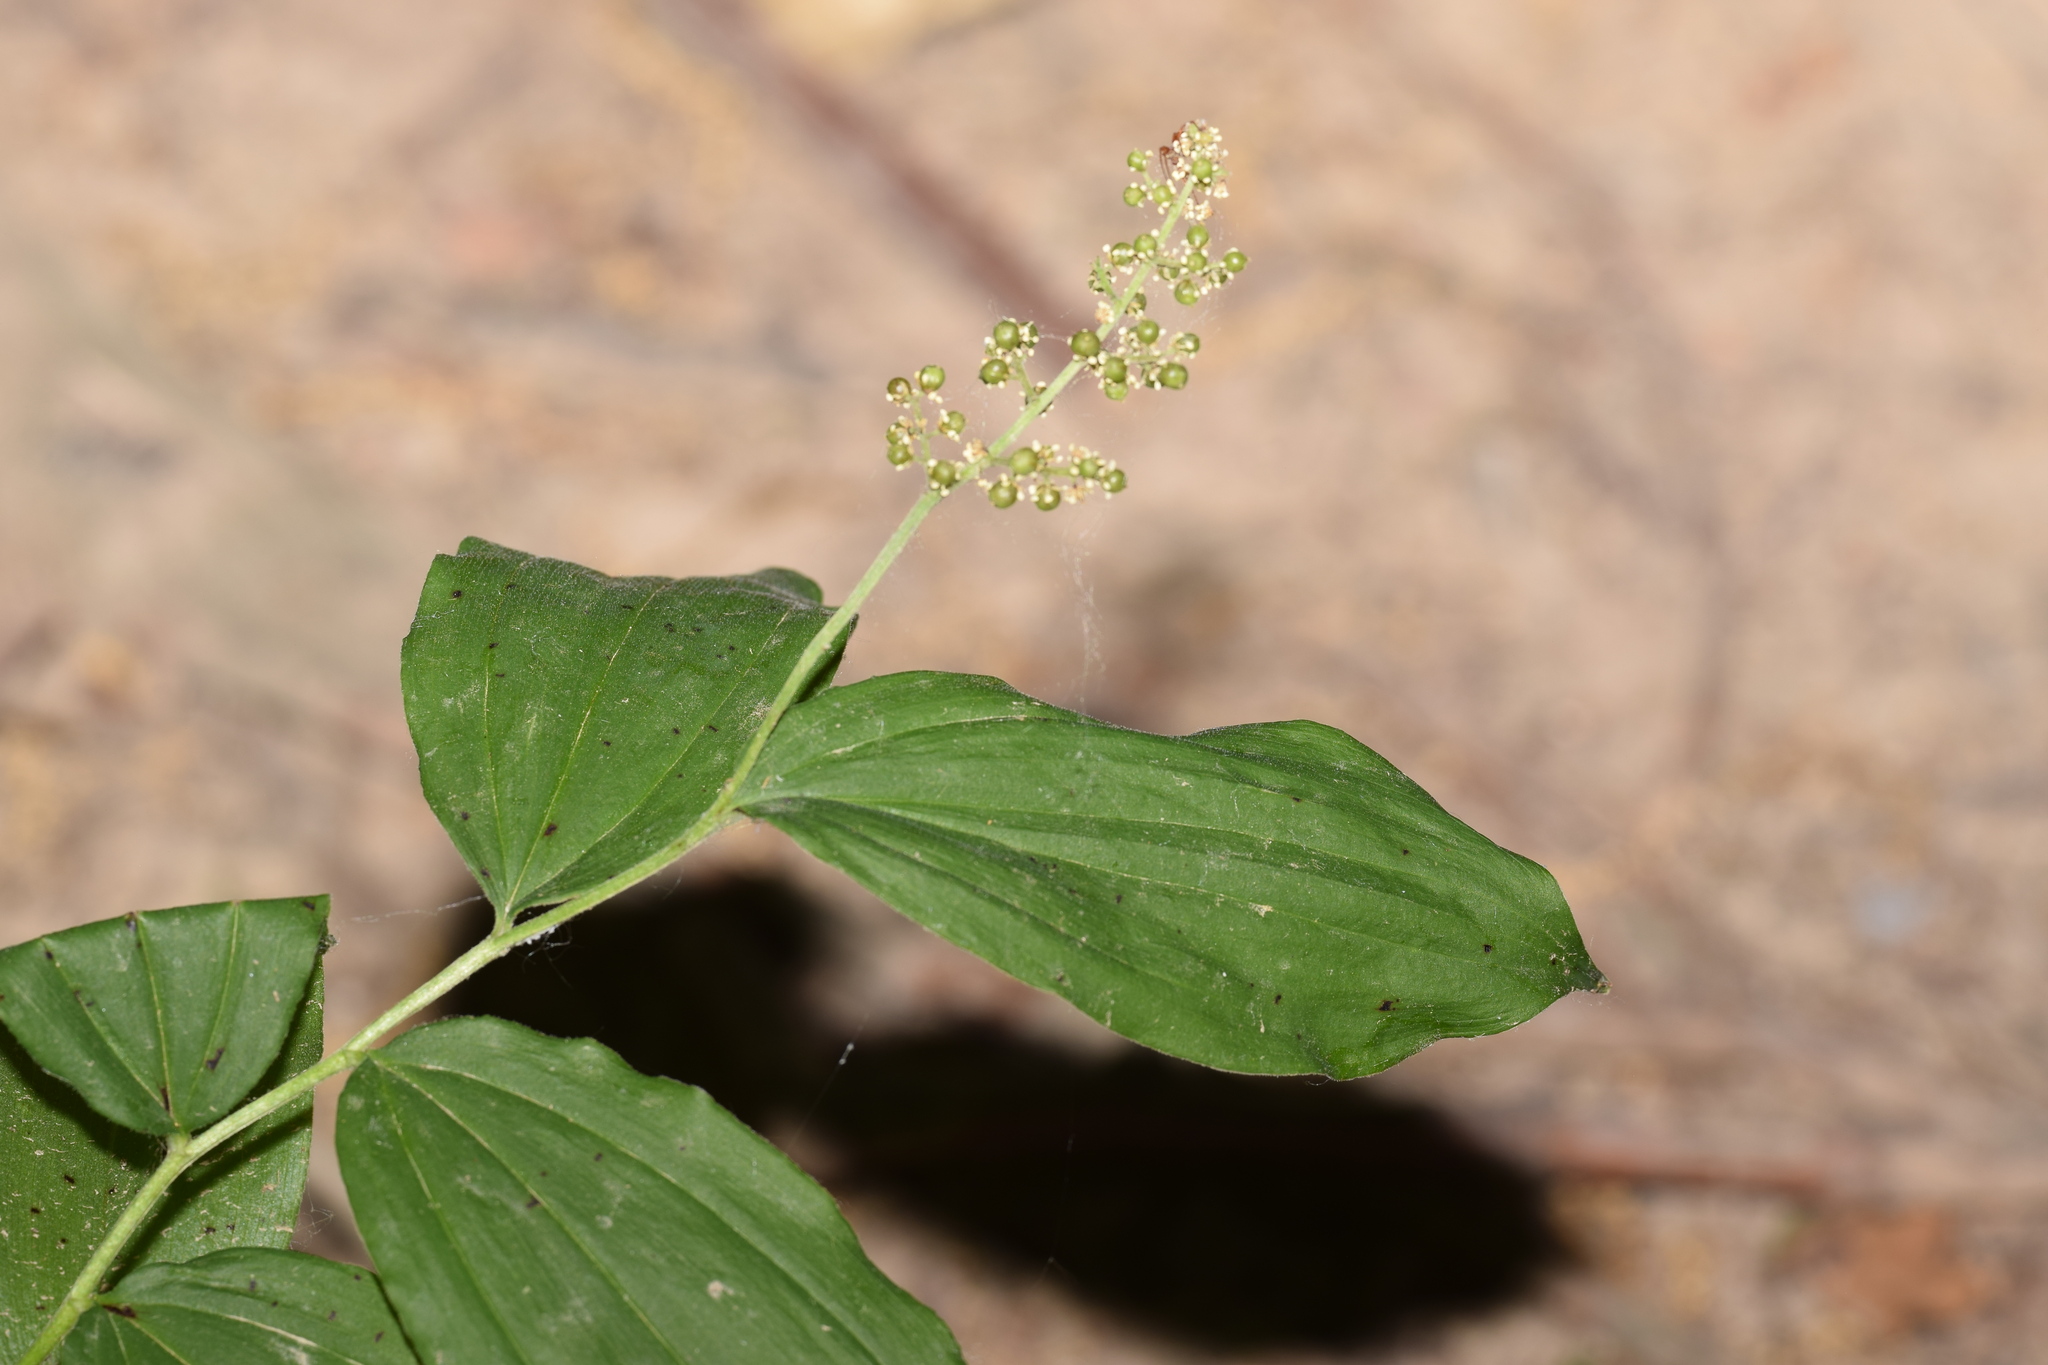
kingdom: Plantae
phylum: Tracheophyta
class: Liliopsida
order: Asparagales
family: Asparagaceae
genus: Maianthemum
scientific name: Maianthemum racemosum
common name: False spikenard
